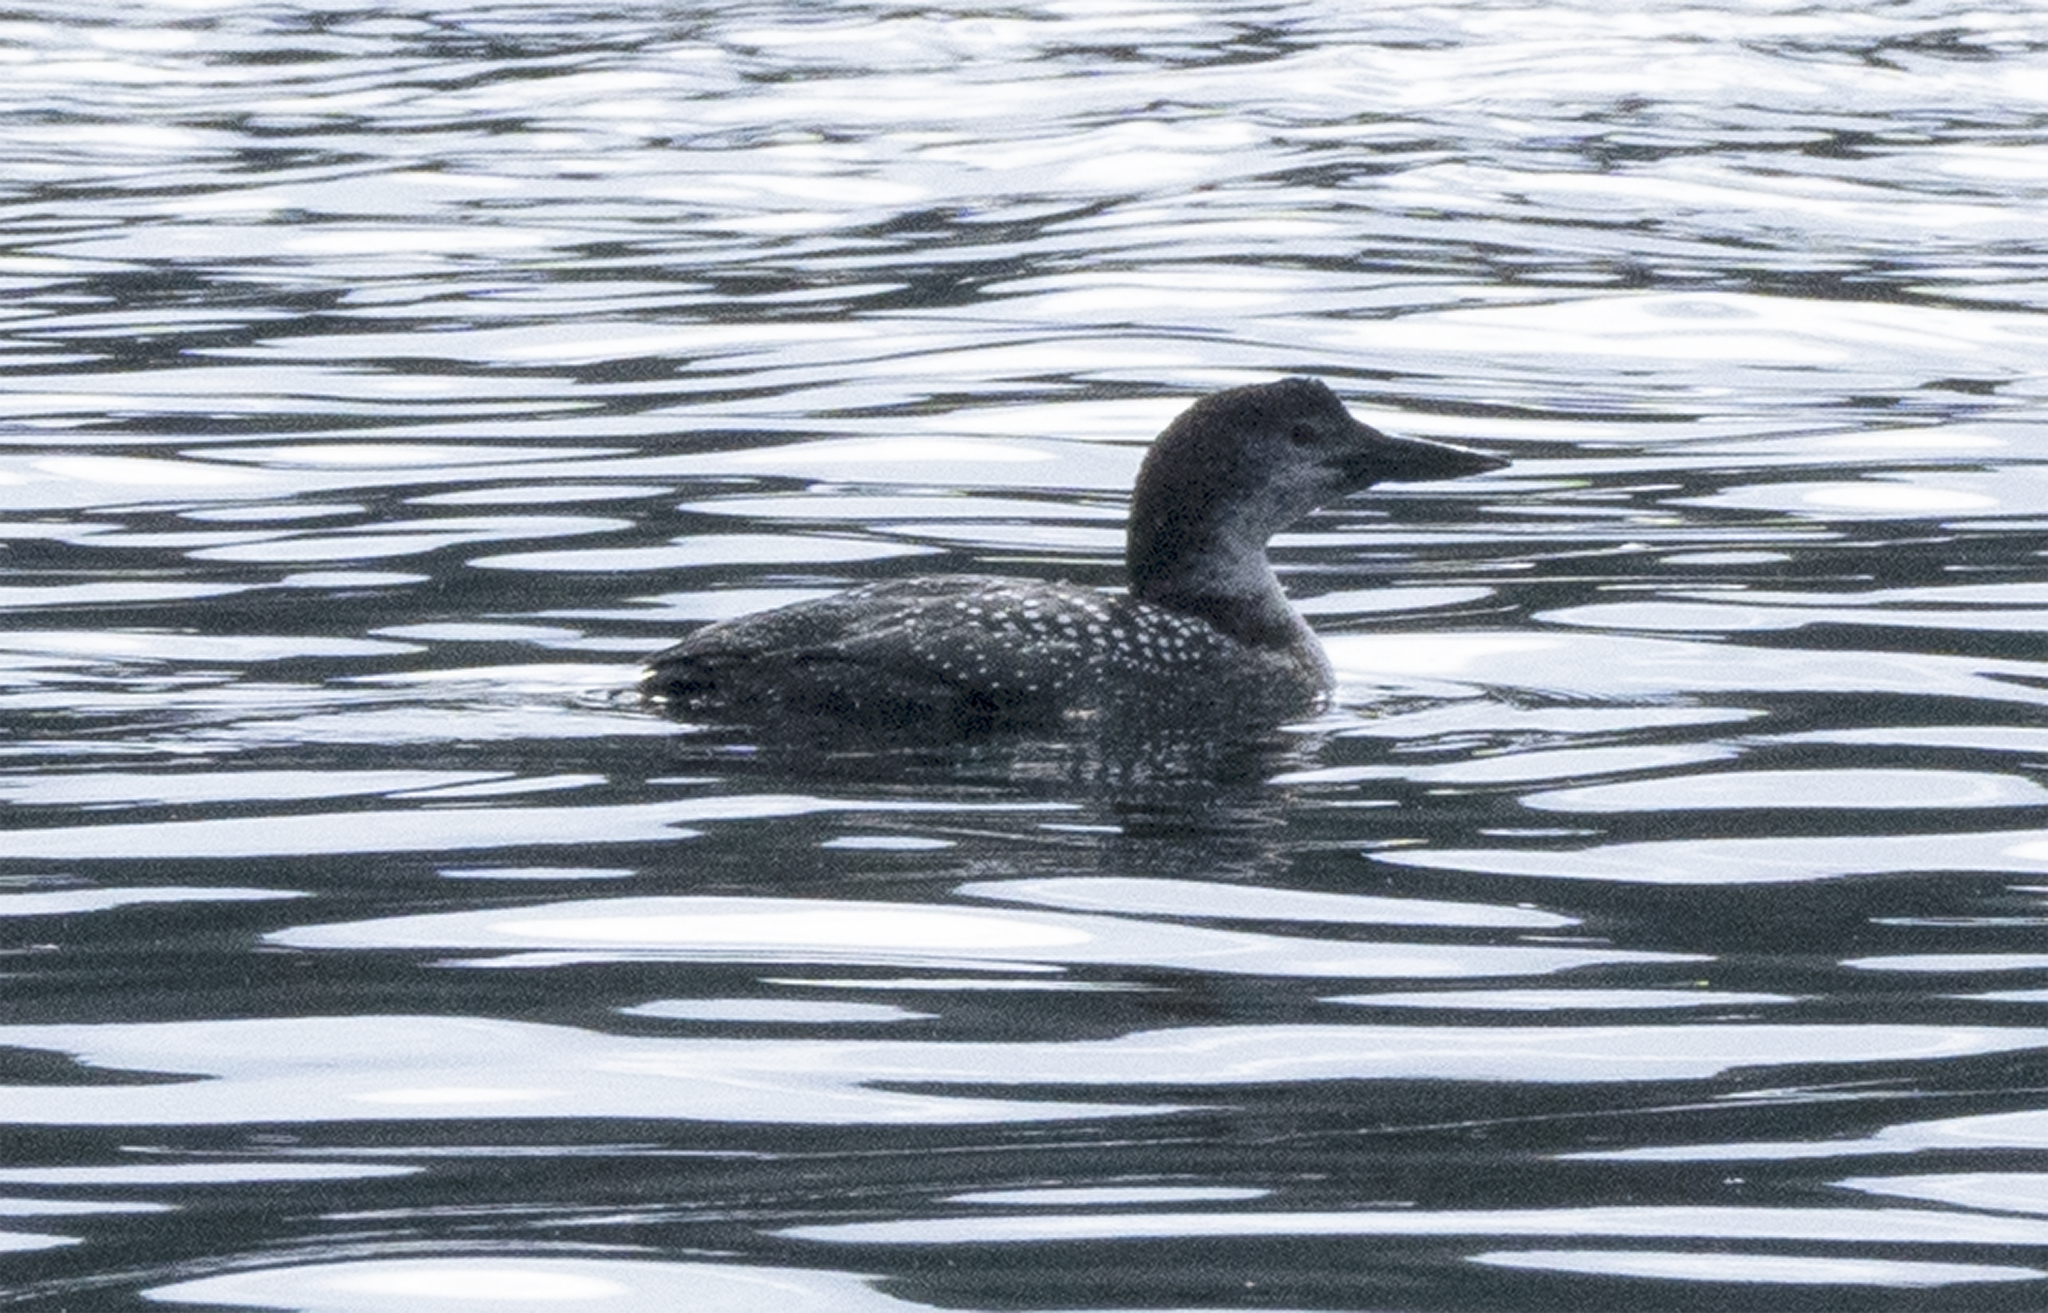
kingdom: Animalia
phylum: Chordata
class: Aves
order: Gaviiformes
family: Gaviidae
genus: Gavia
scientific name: Gavia immer
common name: Common loon
